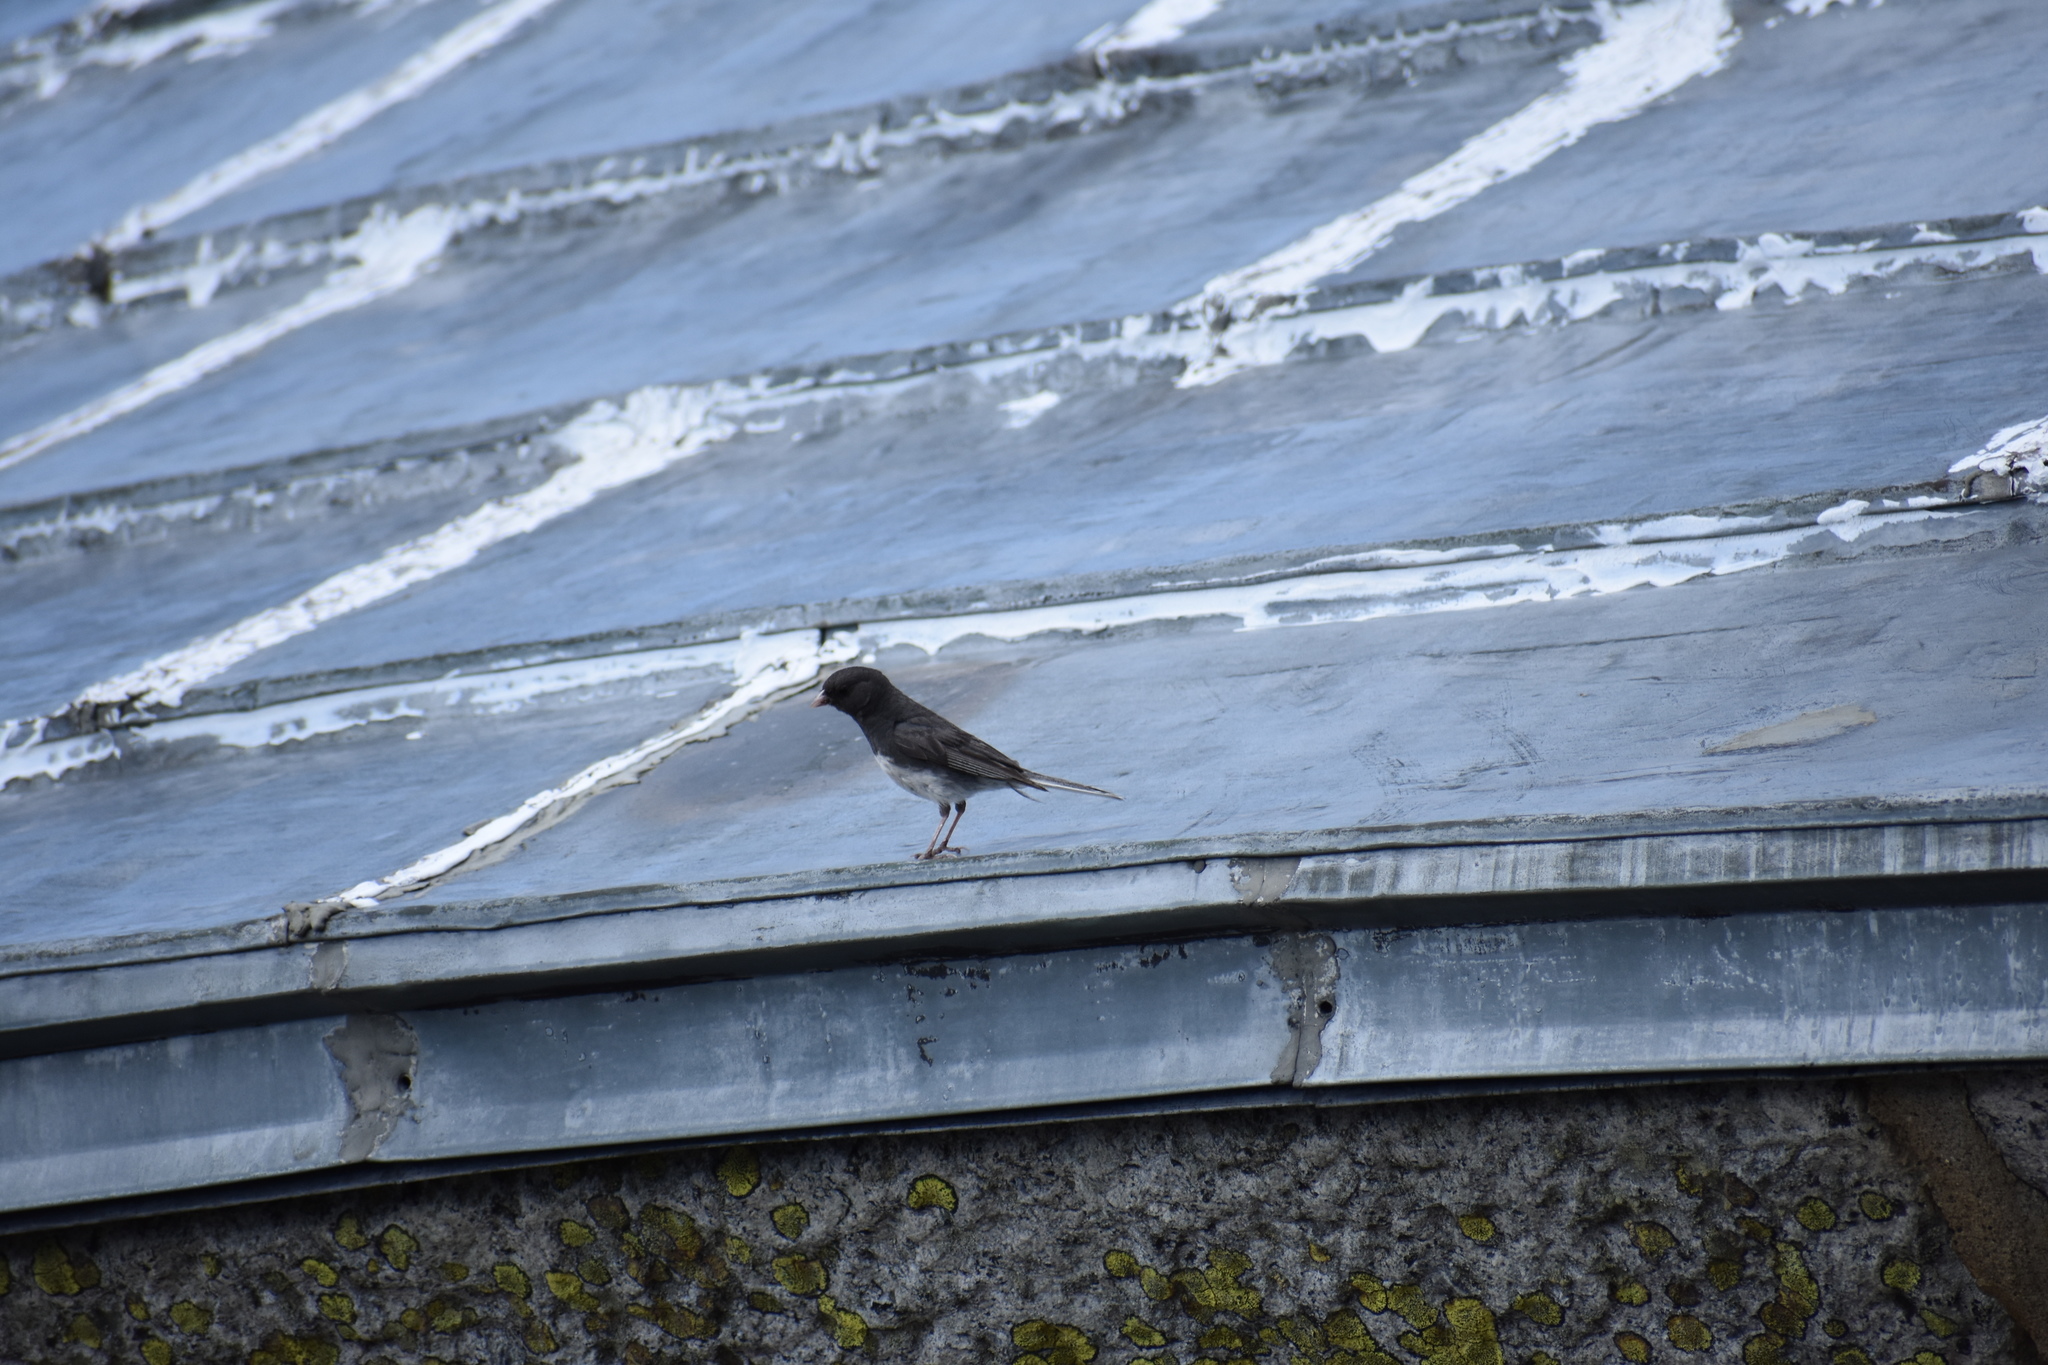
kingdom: Animalia
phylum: Chordata
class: Aves
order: Passeriformes
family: Passerellidae
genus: Junco
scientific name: Junco hyemalis
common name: Dark-eyed junco
